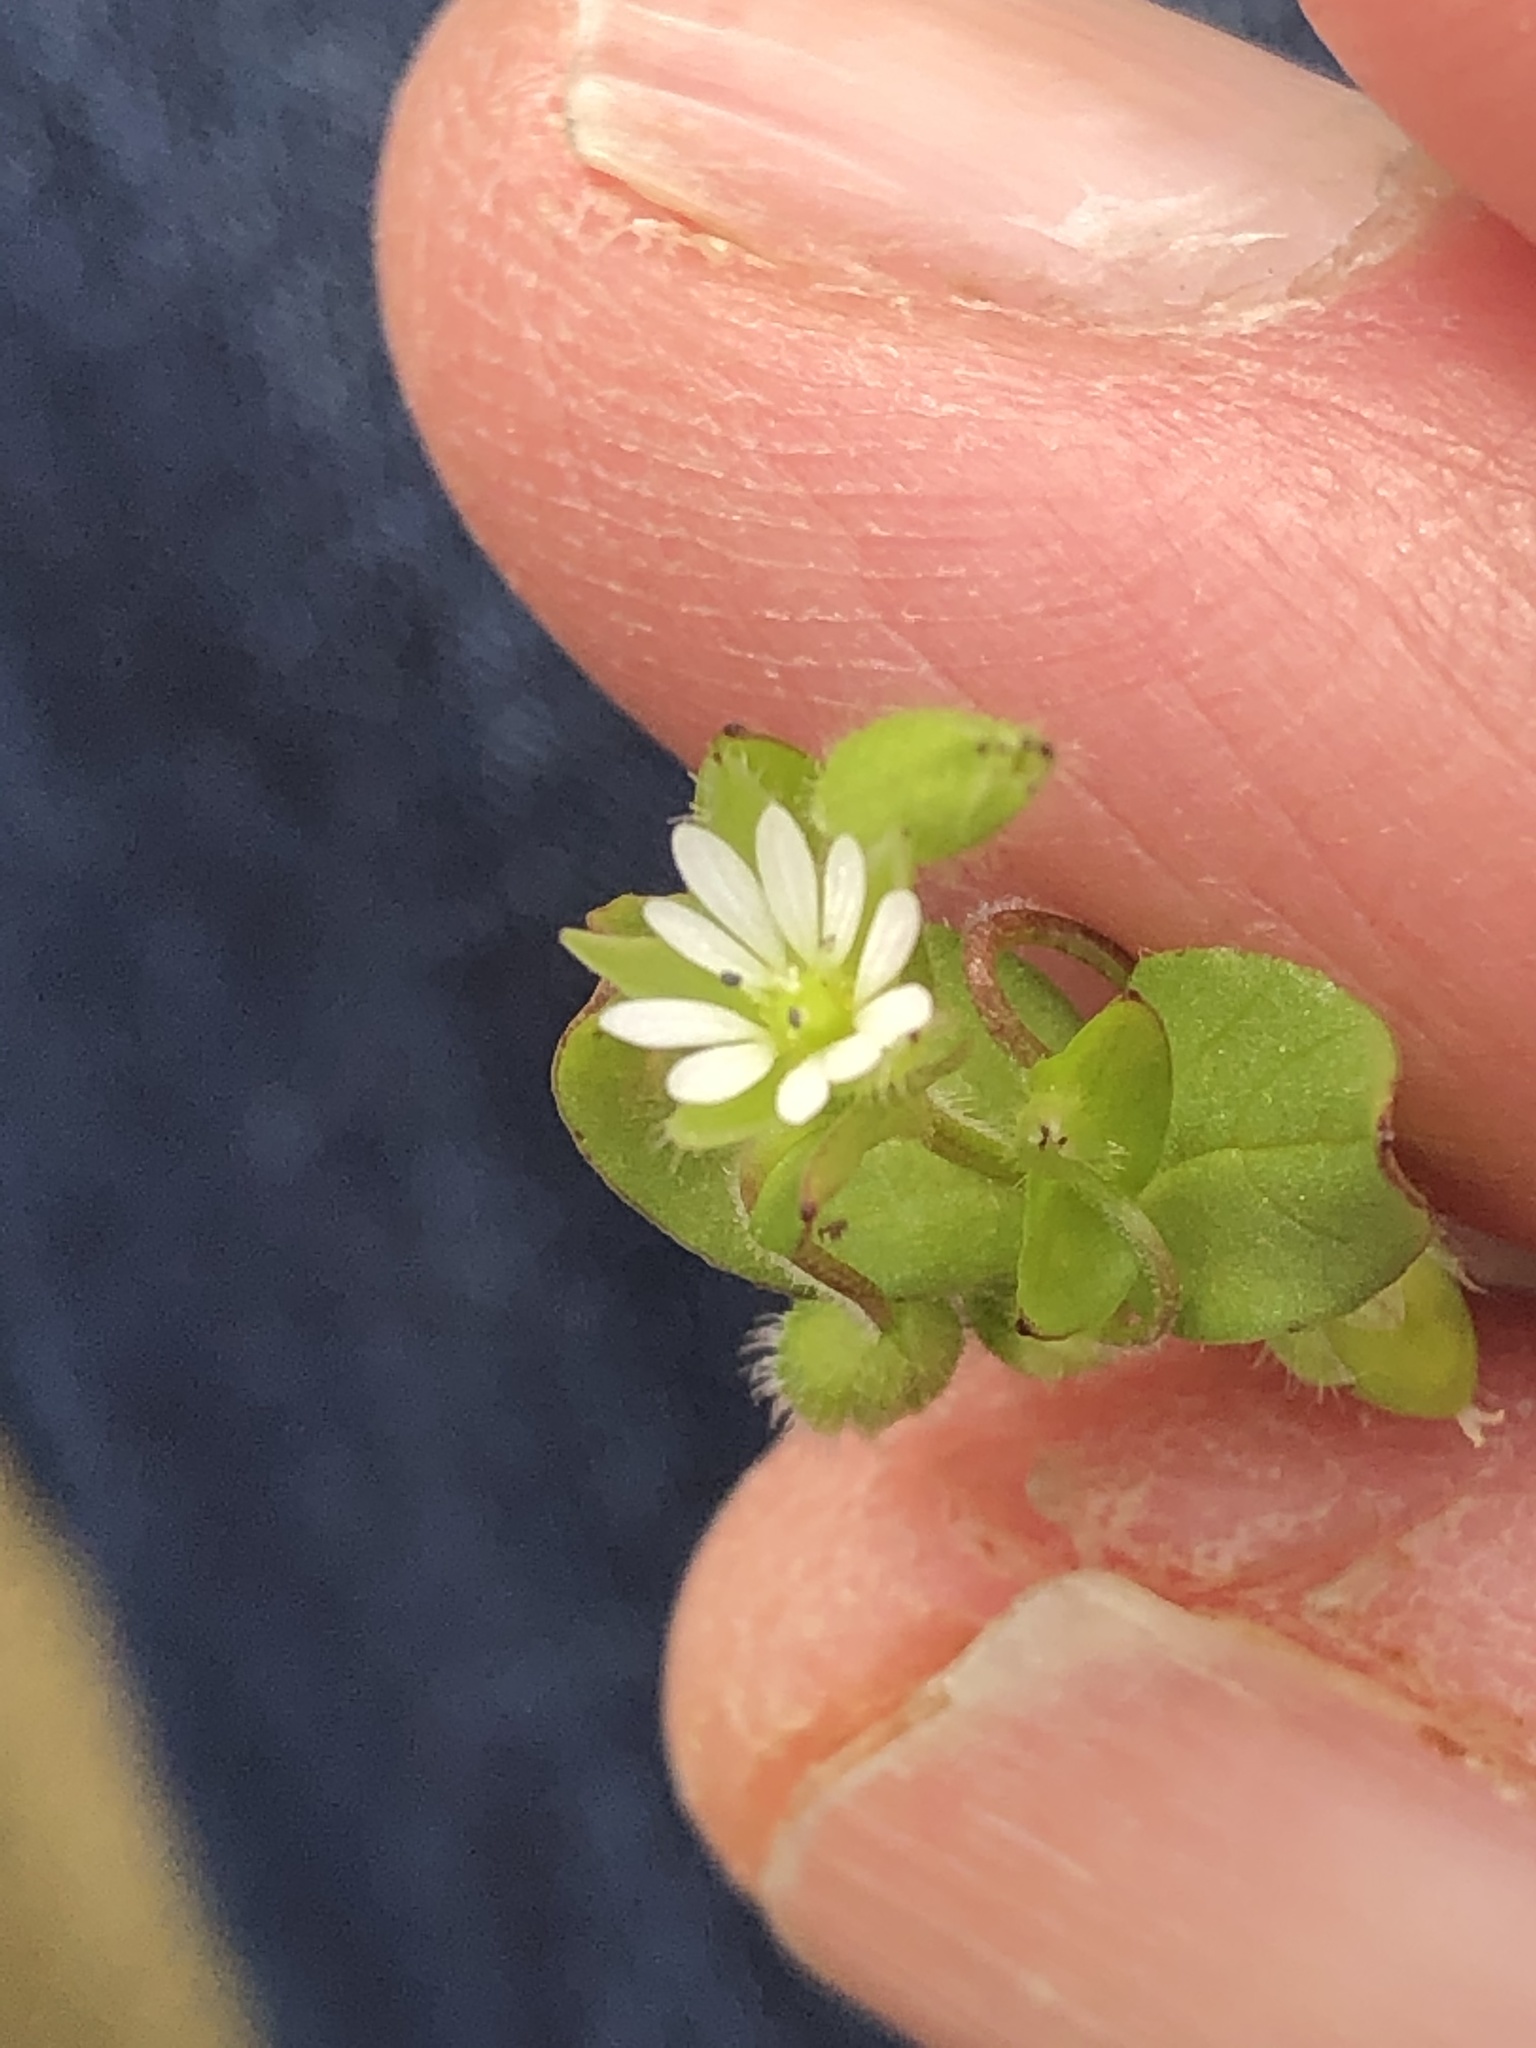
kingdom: Plantae
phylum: Tracheophyta
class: Magnoliopsida
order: Caryophyllales
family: Caryophyllaceae
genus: Stellaria
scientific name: Stellaria media
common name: Common chickweed
